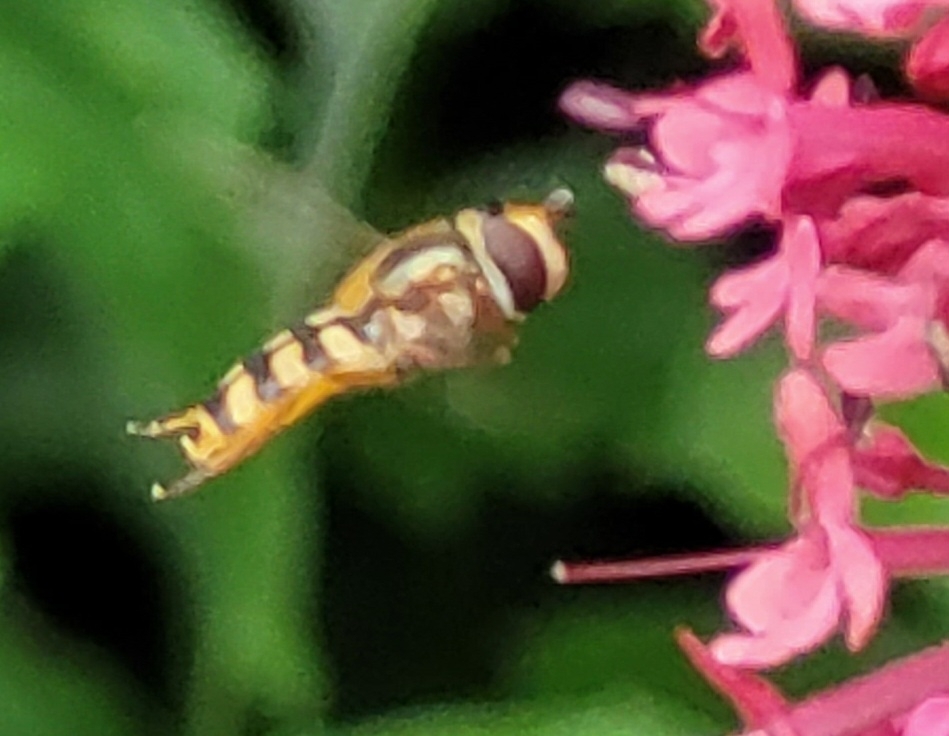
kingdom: Animalia
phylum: Arthropoda
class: Insecta
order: Diptera
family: Syrphidae
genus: Eupeodes
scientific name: Eupeodes corollae
